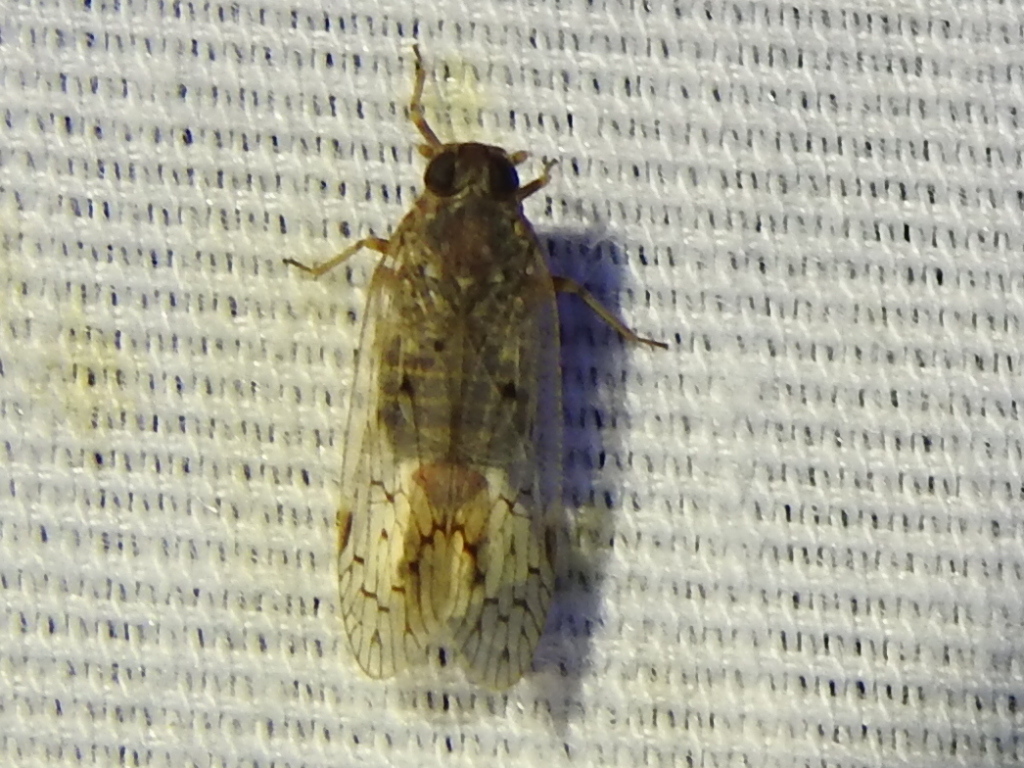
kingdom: Animalia
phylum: Arthropoda
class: Insecta
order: Hemiptera
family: Cixiidae
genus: Melanoliarus
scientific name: Melanoliarus aridus
